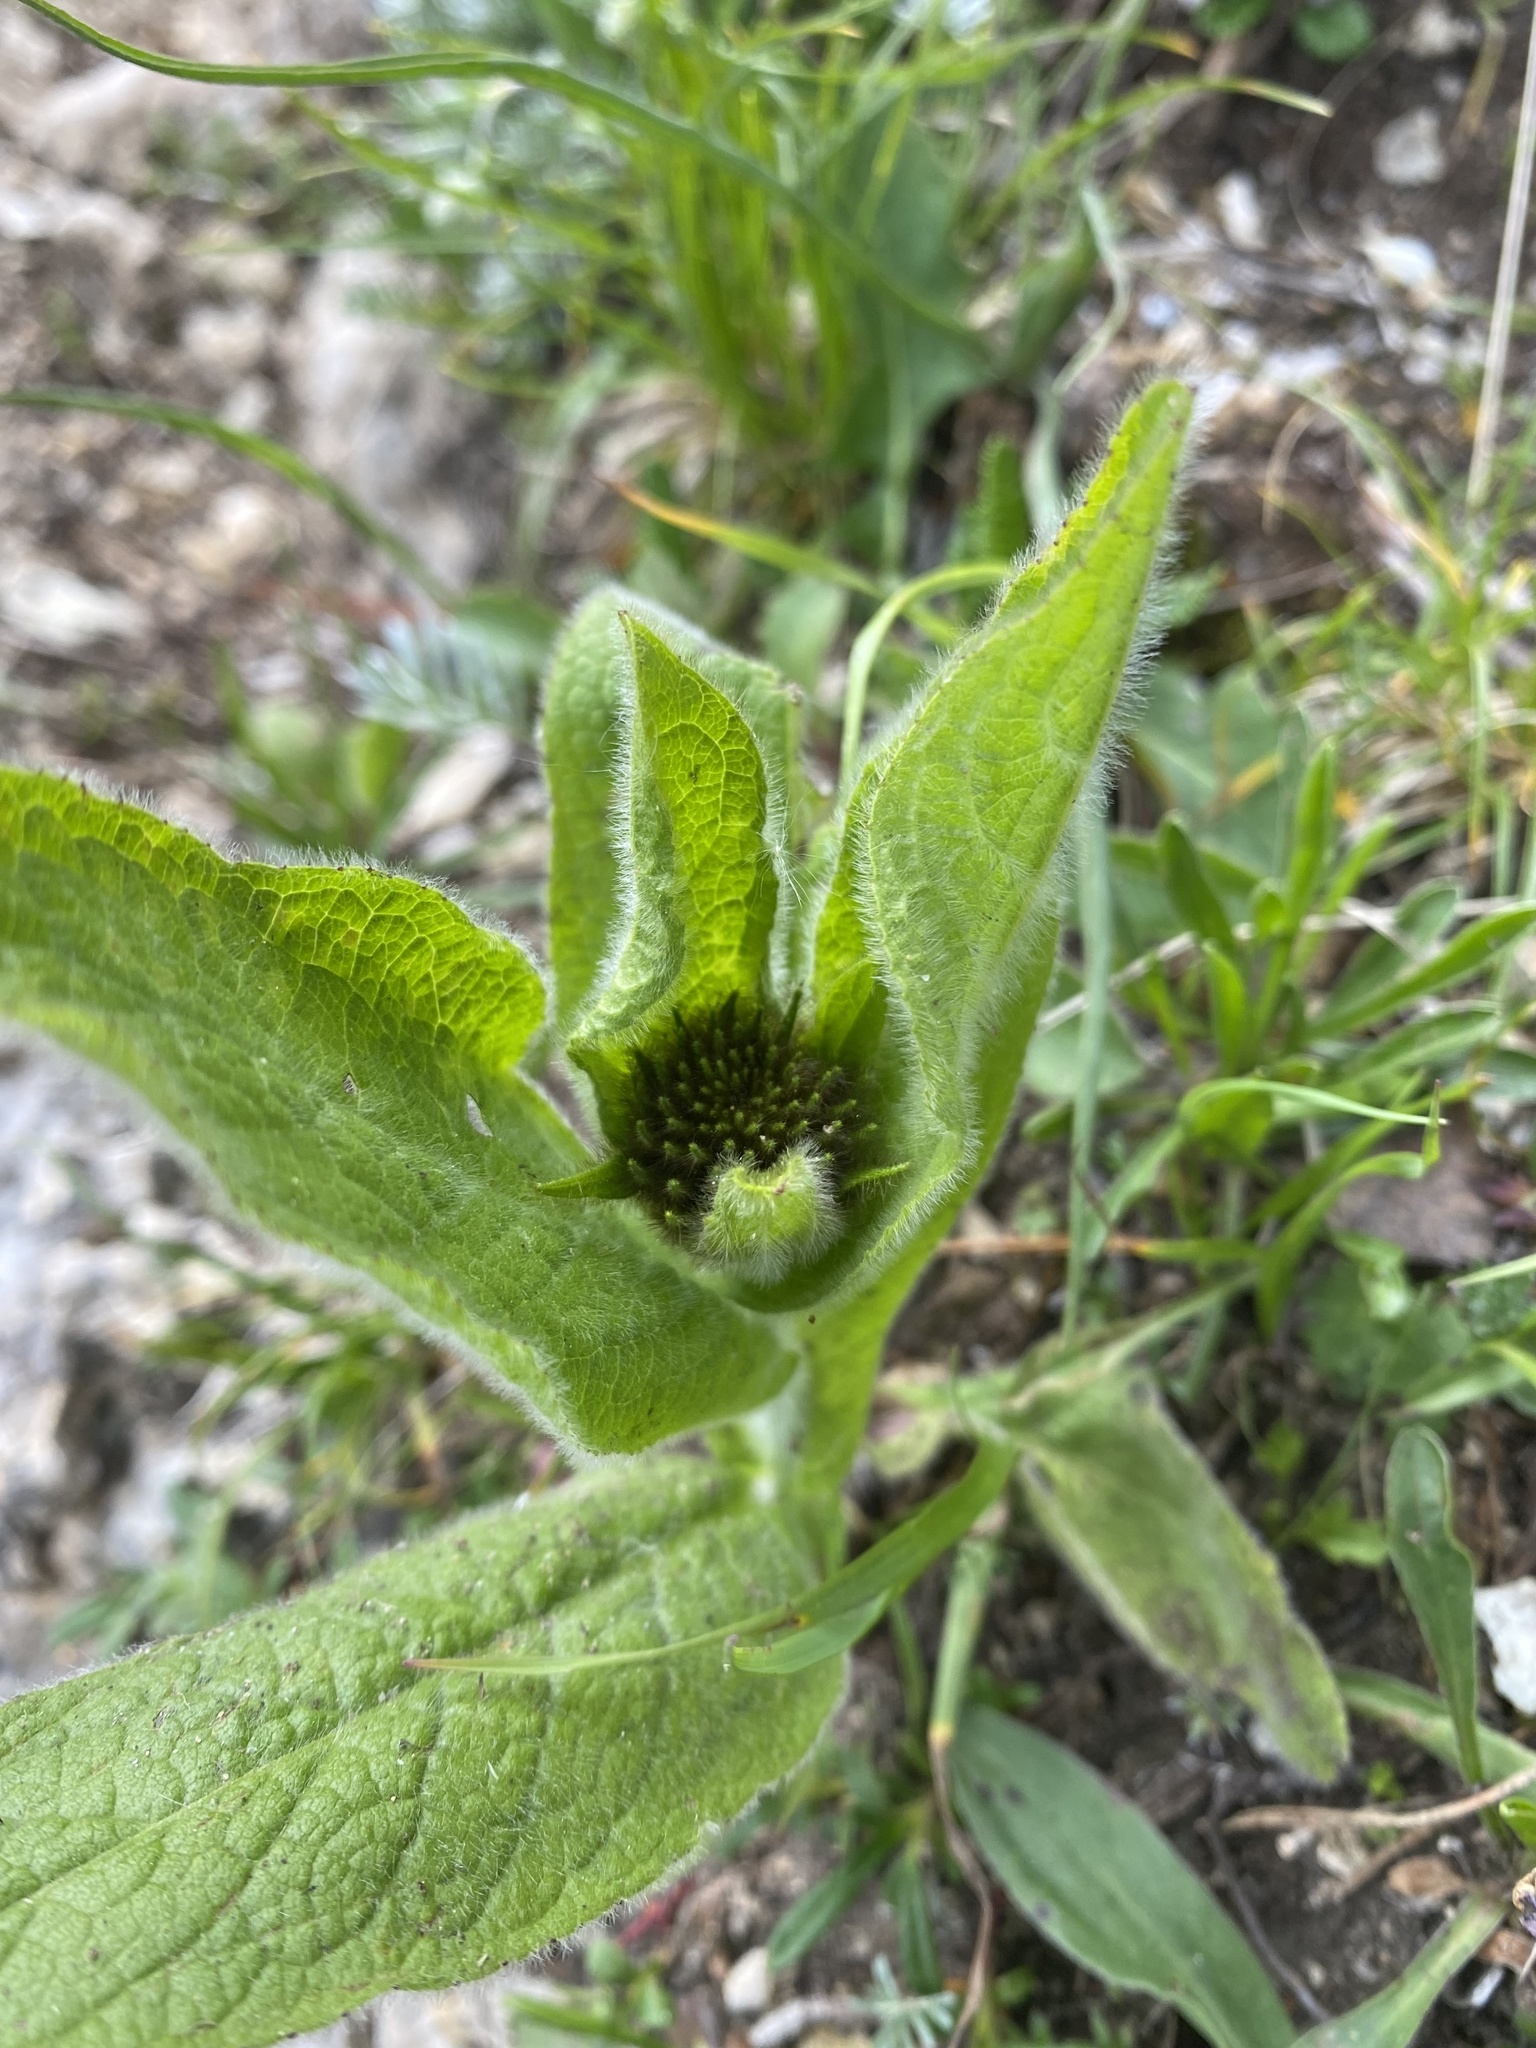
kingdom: Plantae
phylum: Tracheophyta
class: Magnoliopsida
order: Asterales
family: Asteraceae
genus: Pentanema
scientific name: Pentanema orientale
